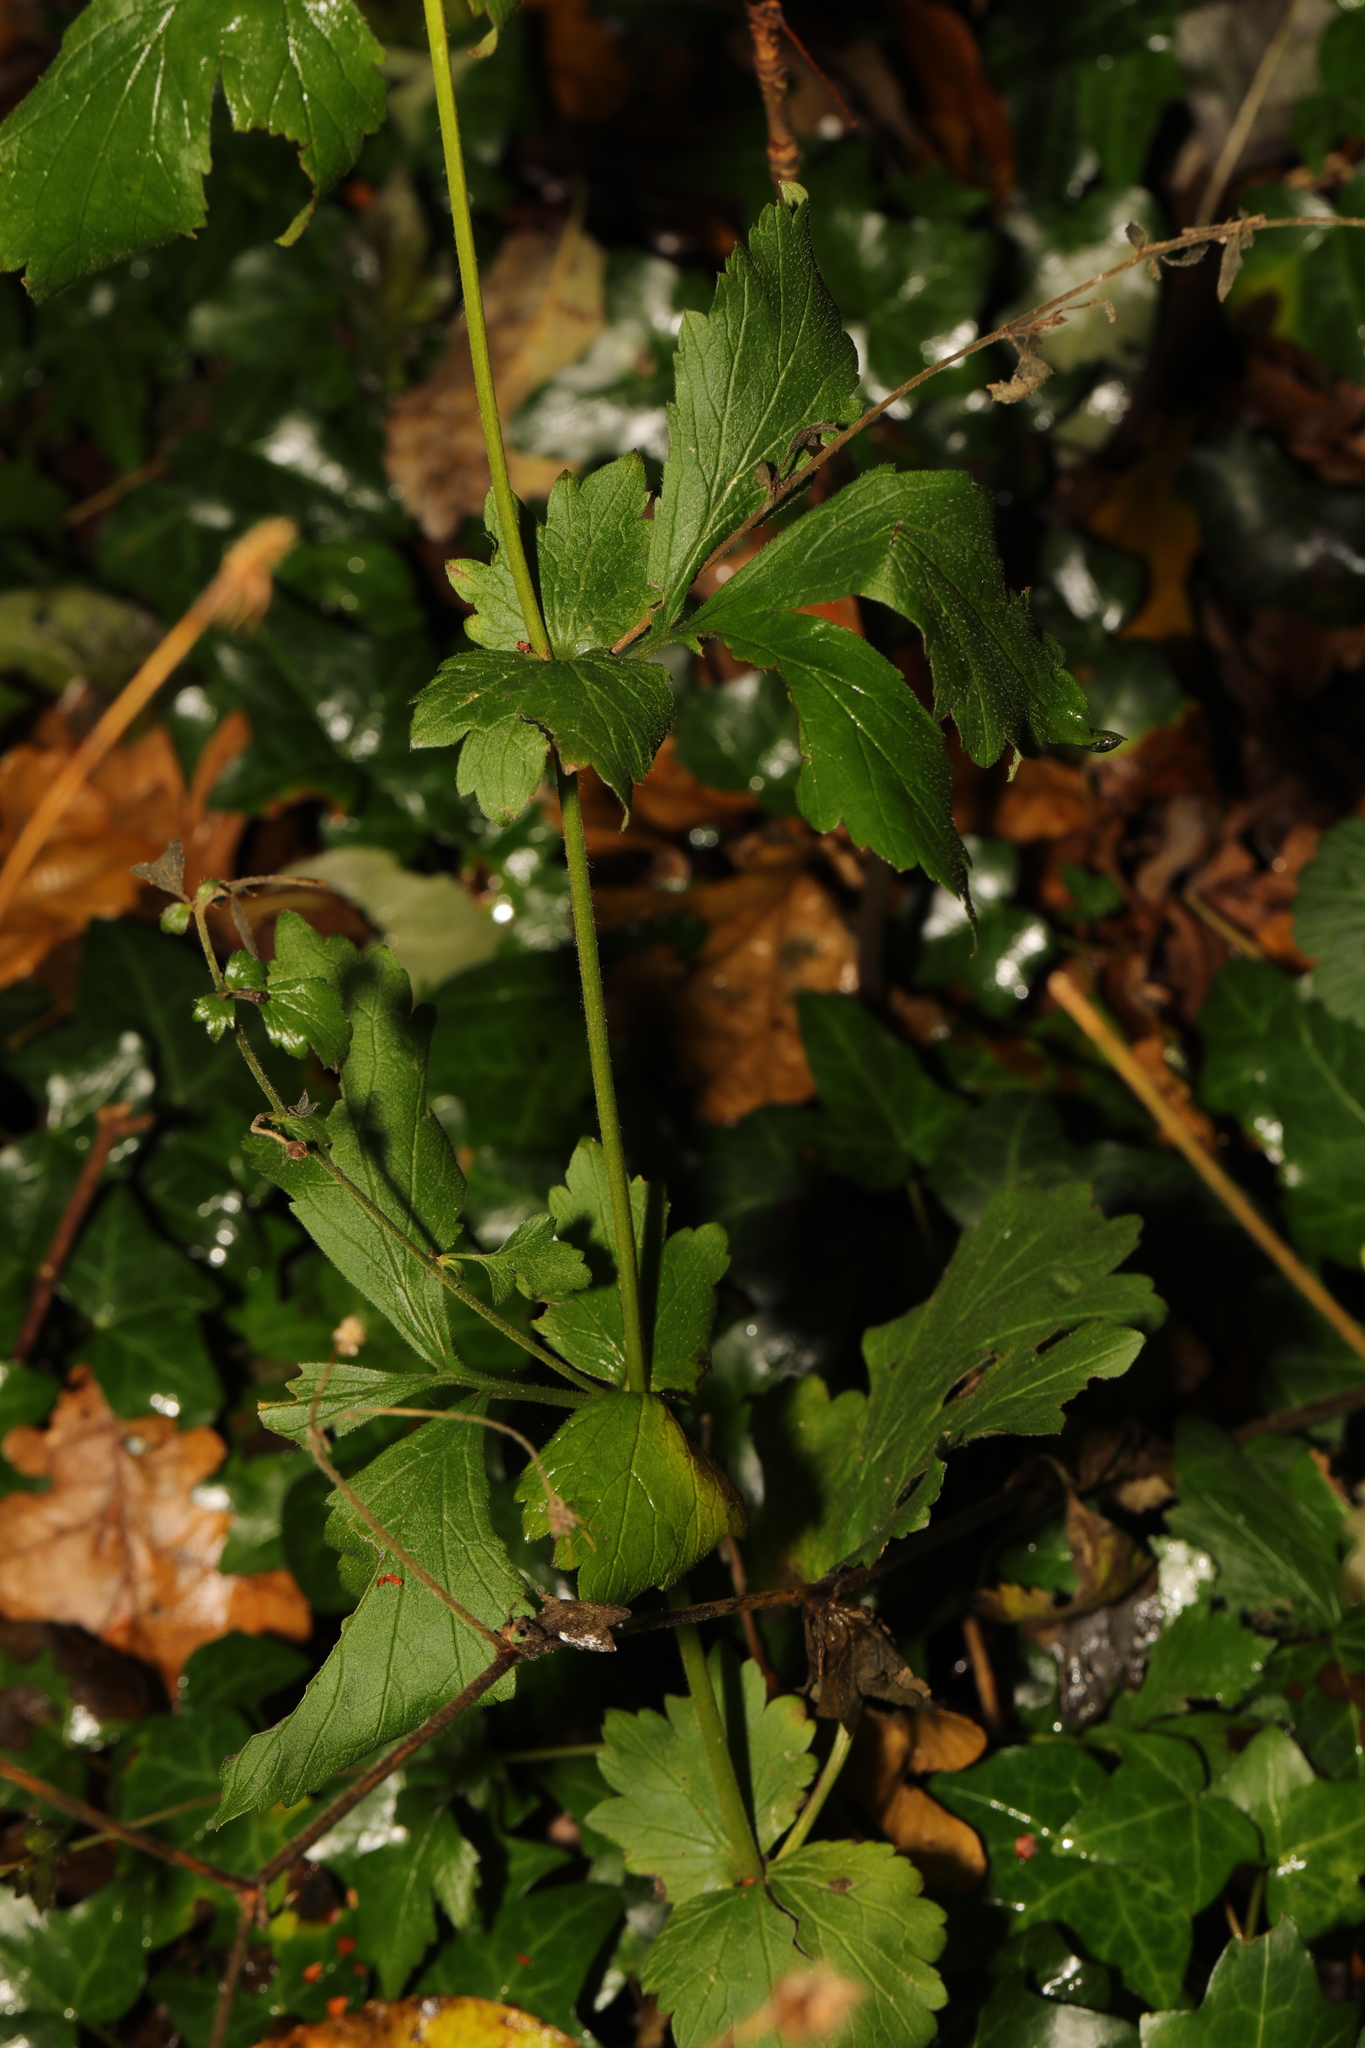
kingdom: Plantae
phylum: Tracheophyta
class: Magnoliopsida
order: Rosales
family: Rosaceae
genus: Geum
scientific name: Geum urbanum
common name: Wood avens
